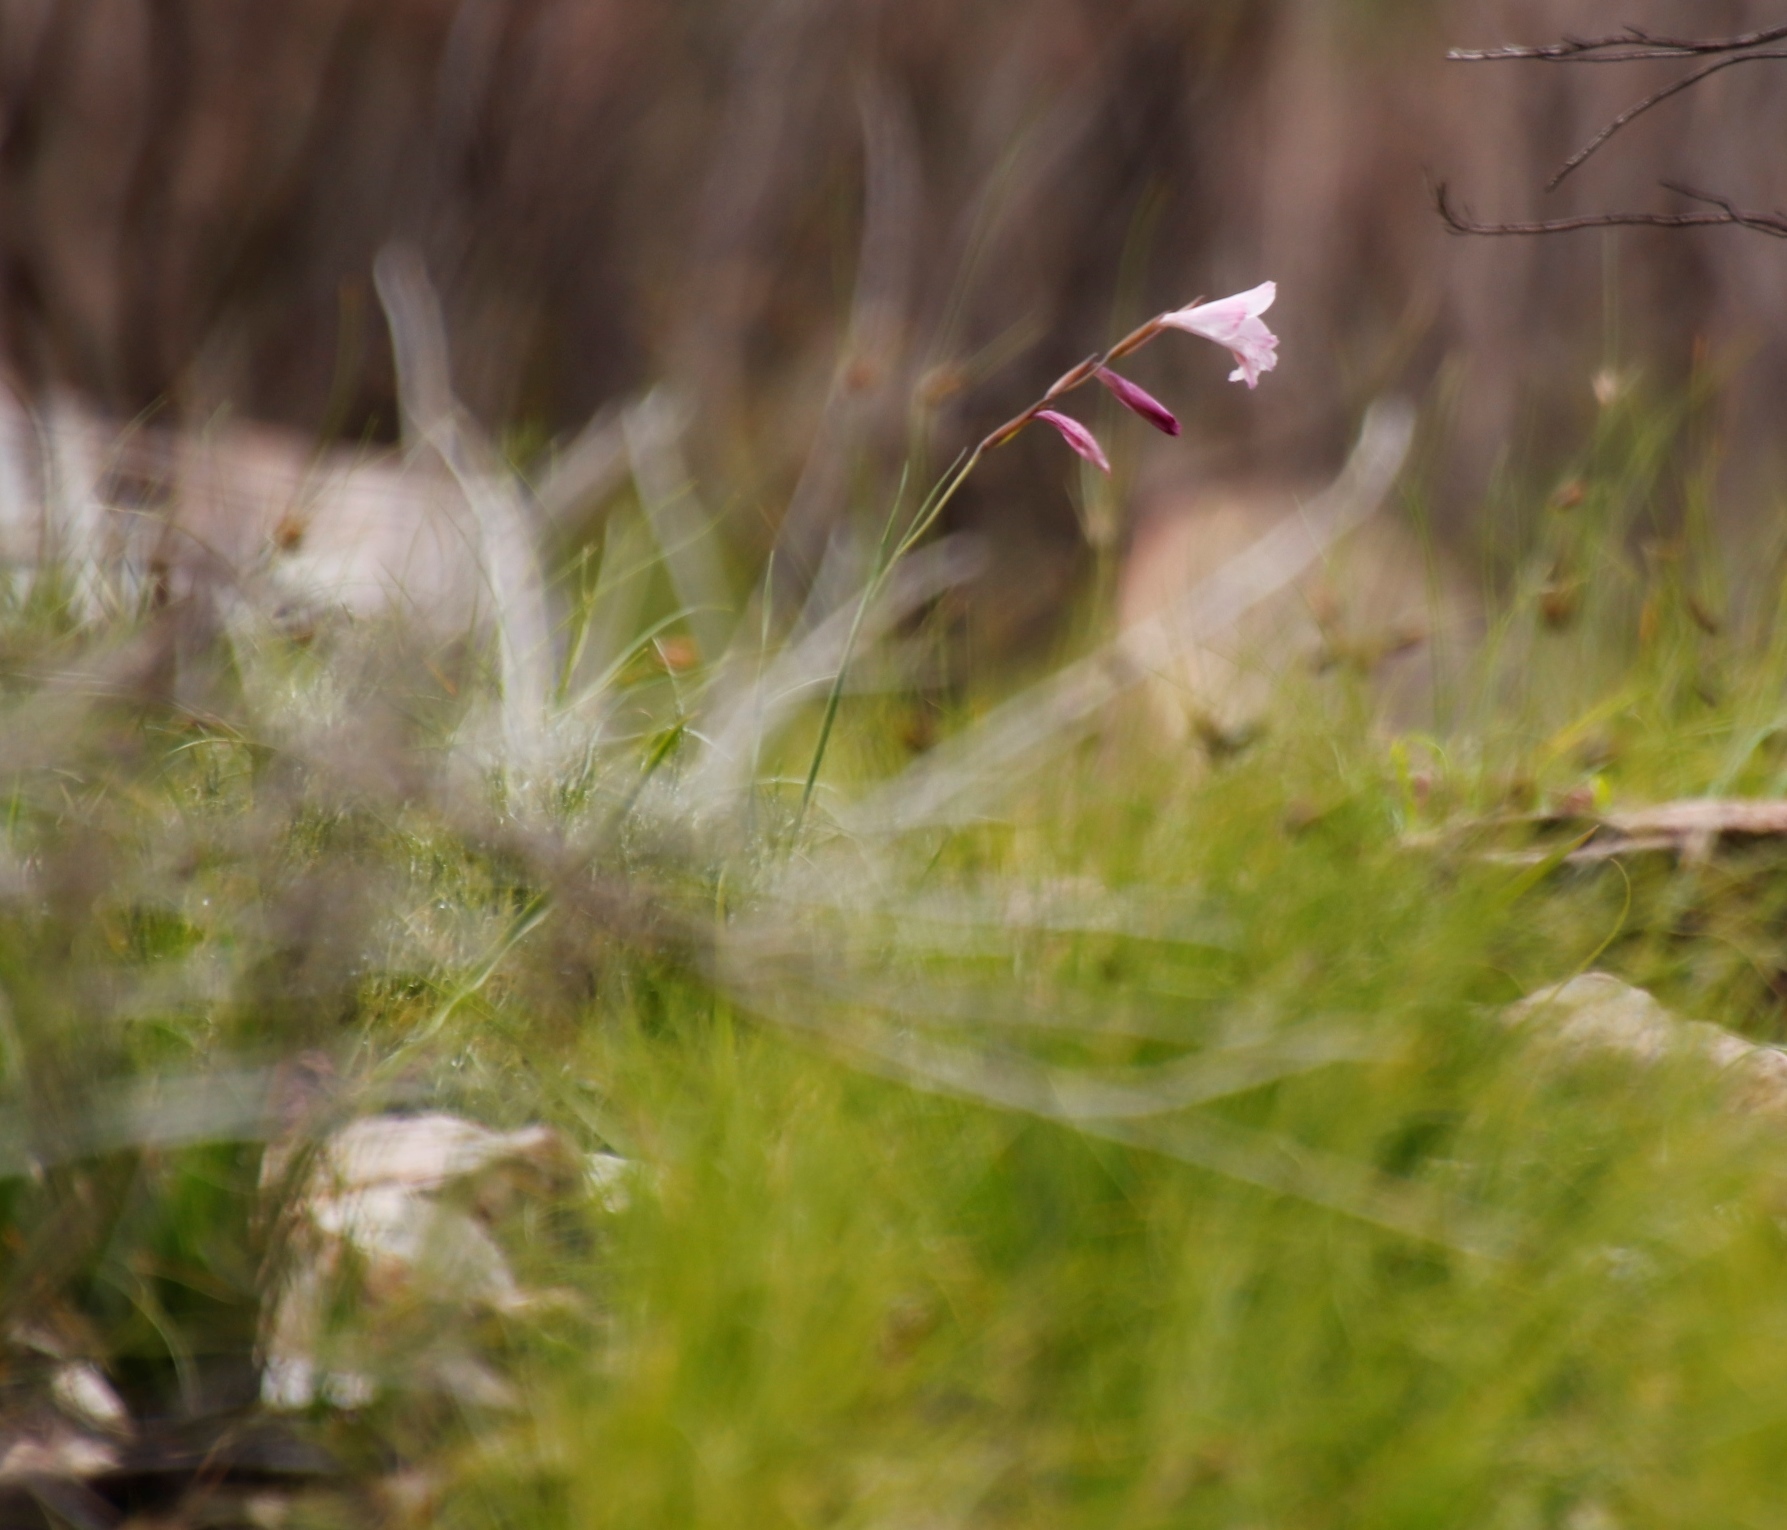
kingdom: Plantae
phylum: Tracheophyta
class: Liliopsida
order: Asparagales
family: Iridaceae
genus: Gladiolus
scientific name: Gladiolus hirsutus
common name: Small pink afrikaner
